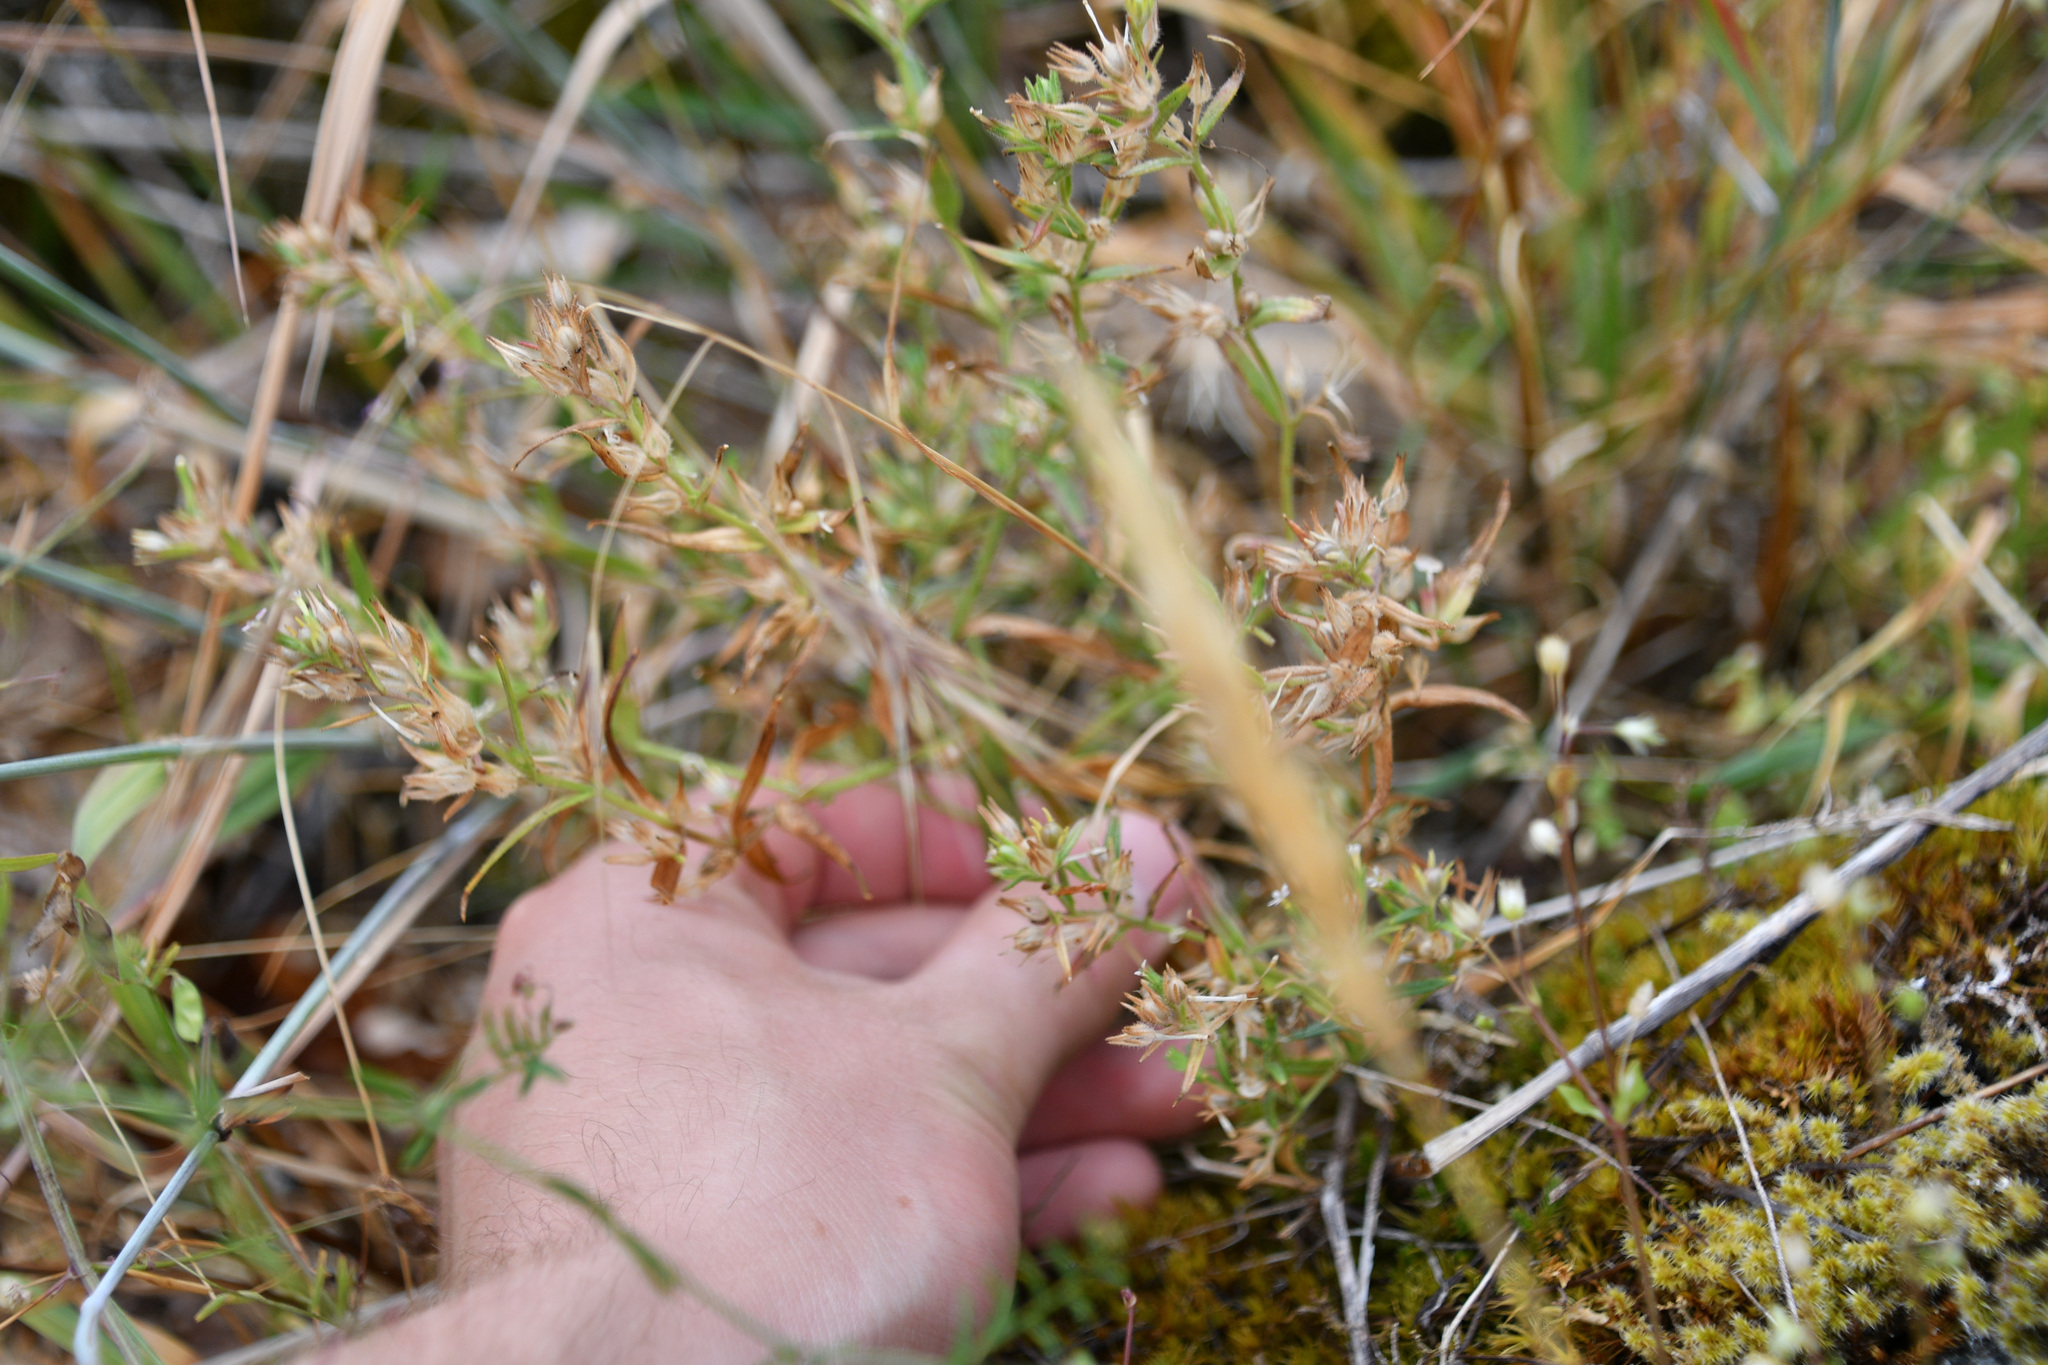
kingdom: Plantae
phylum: Tracheophyta
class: Magnoliopsida
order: Ericales
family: Polemoniaceae
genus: Phlox
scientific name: Phlox gracilis
